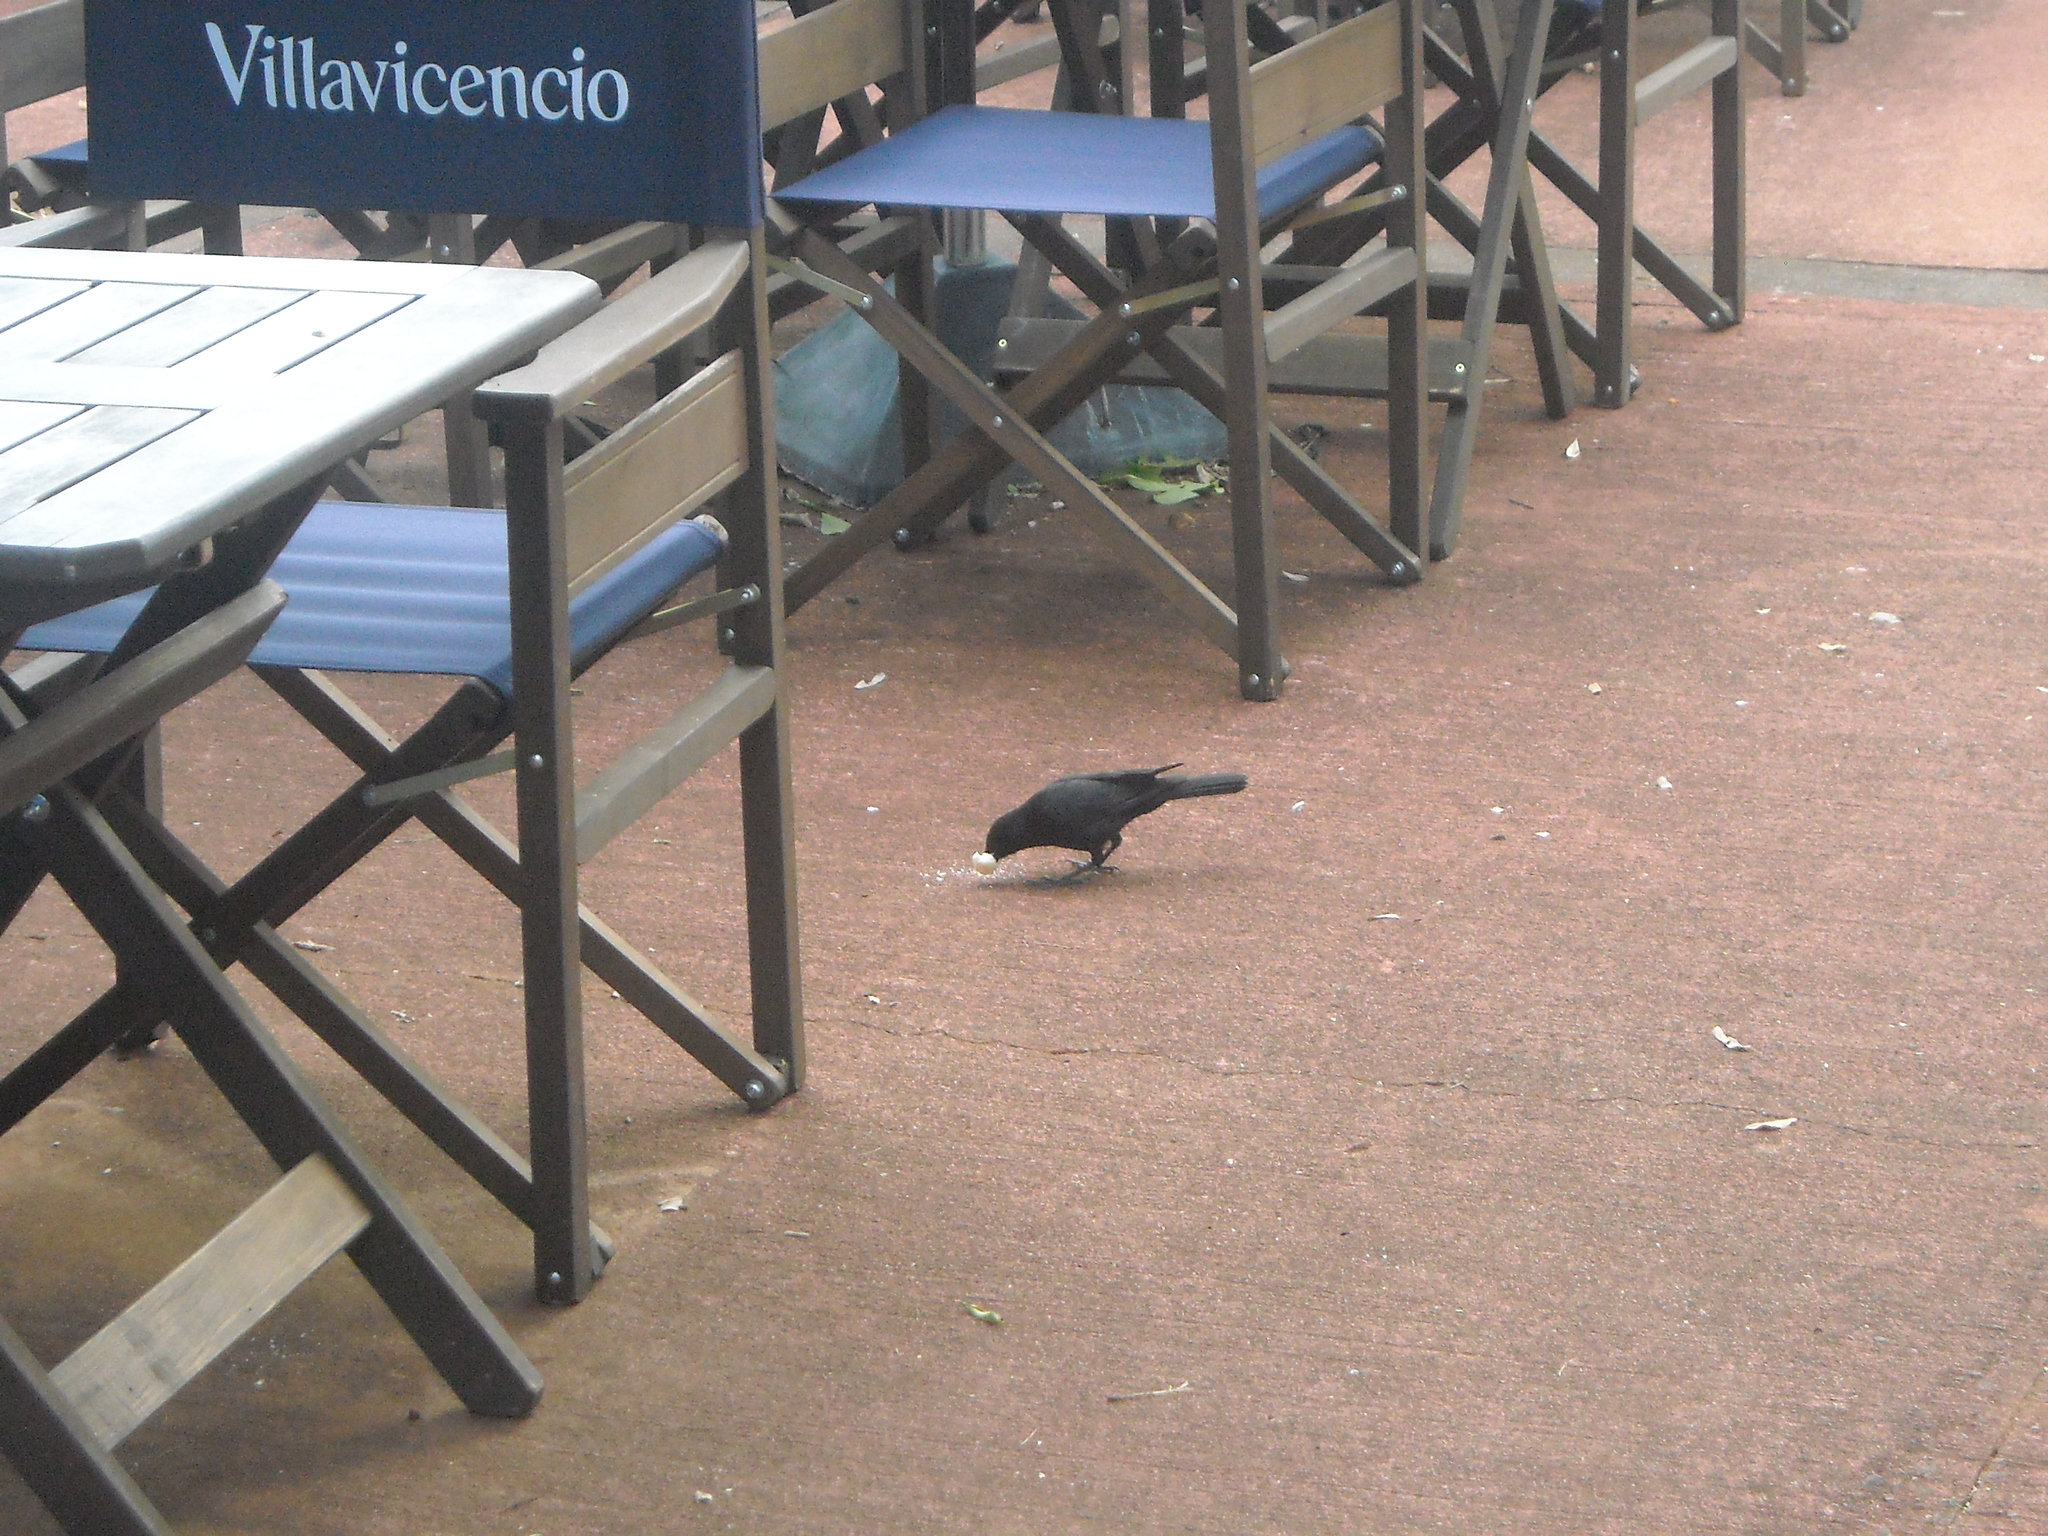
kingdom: Animalia
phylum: Chordata
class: Aves
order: Passeriformes
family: Icteridae
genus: Gnorimopsar
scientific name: Gnorimopsar chopi
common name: Chopi blackbird
